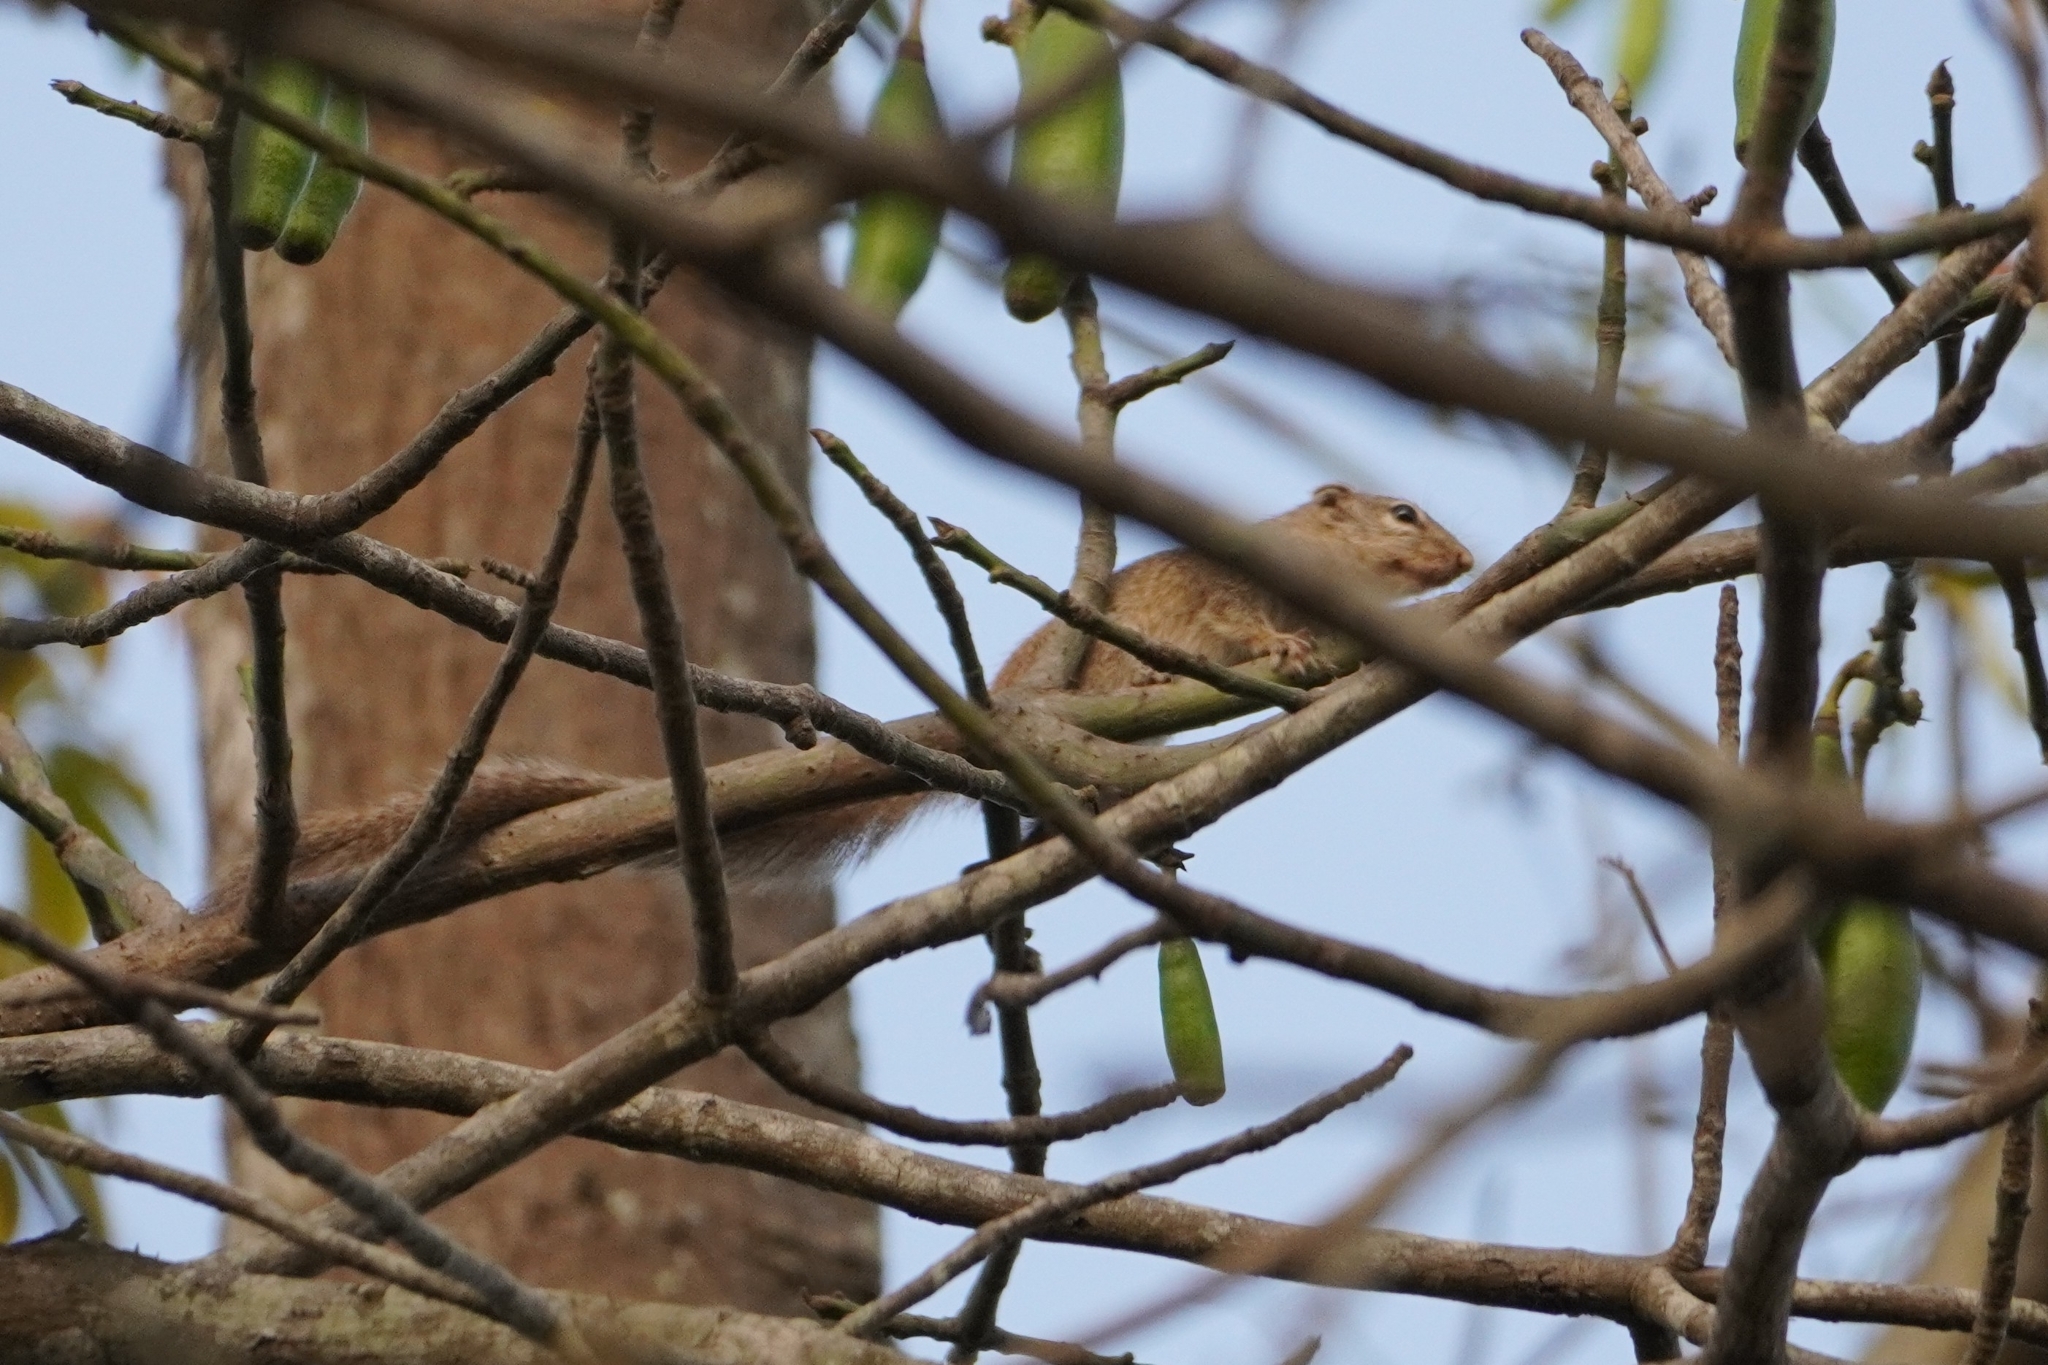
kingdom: Animalia
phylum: Chordata
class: Mammalia
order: Rodentia
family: Sciuridae
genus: Heliosciurus
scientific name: Heliosciurus gambianus
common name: Gambian sun squirrel
